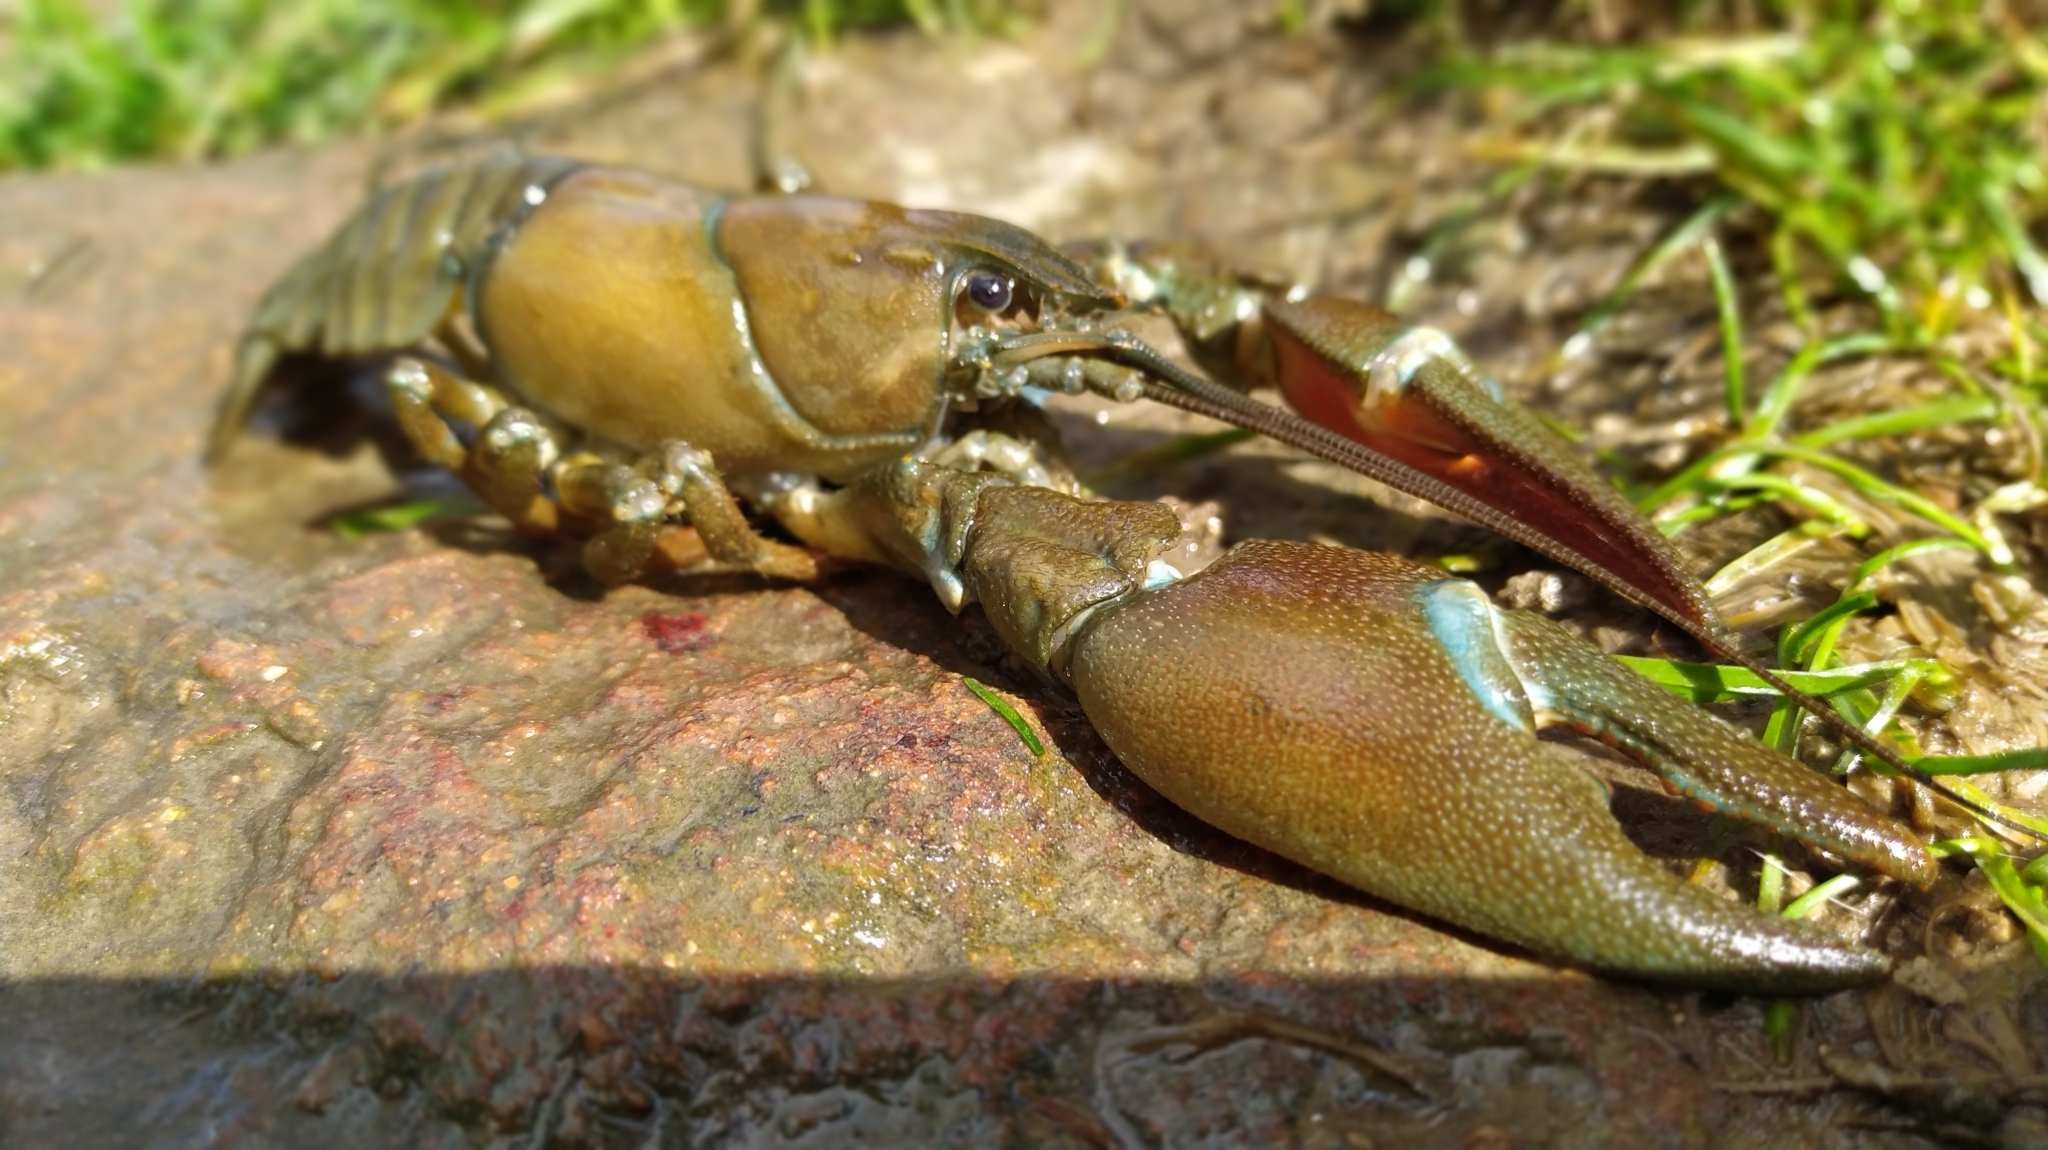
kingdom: Animalia
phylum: Arthropoda
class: Malacostraca
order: Decapoda
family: Astacidae
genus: Pacifastacus
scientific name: Pacifastacus leniusculus
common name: Signal crayfish
